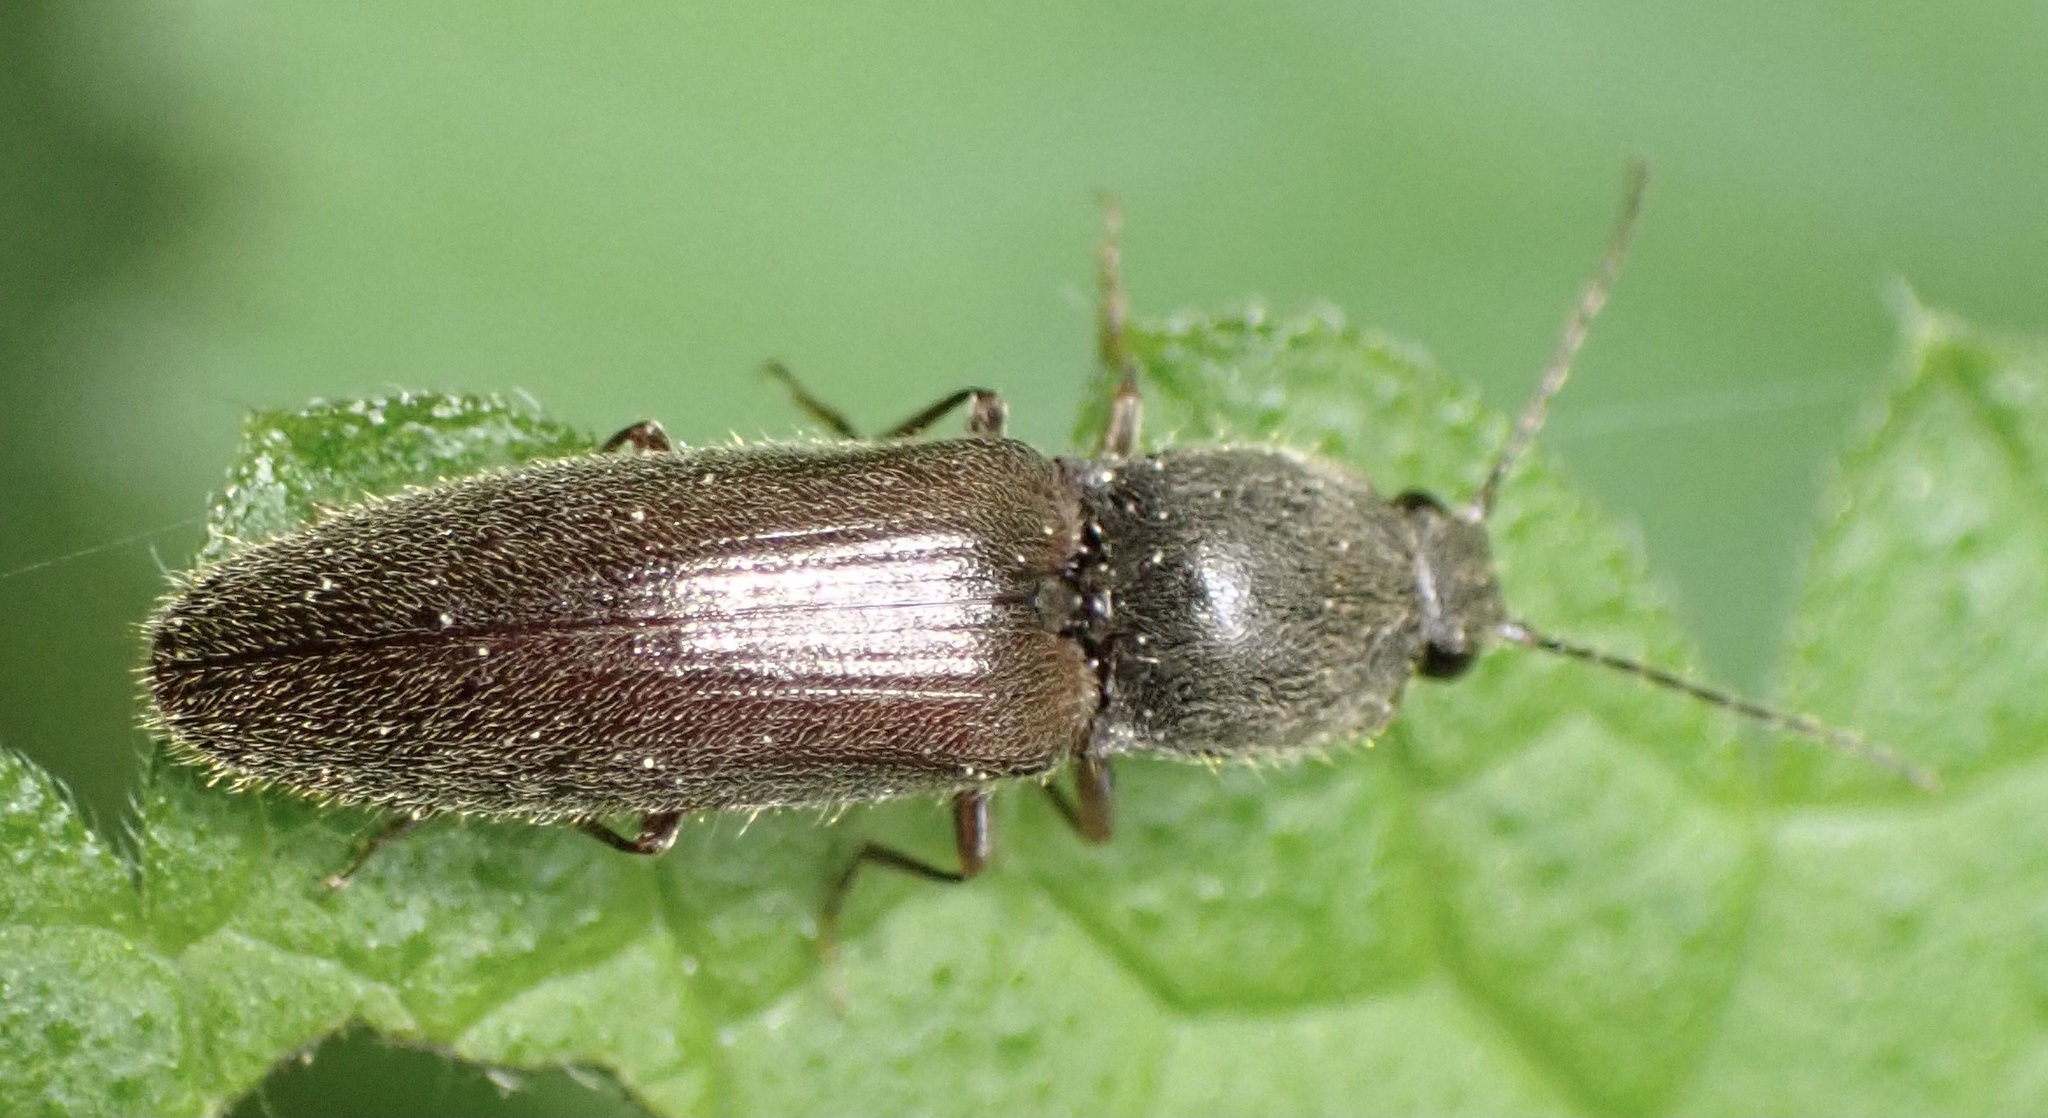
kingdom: Animalia
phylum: Arthropoda
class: Insecta
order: Coleoptera
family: Elateridae
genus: Athous
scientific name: Athous haemorrhoidalis
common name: Red-brown click beetle
